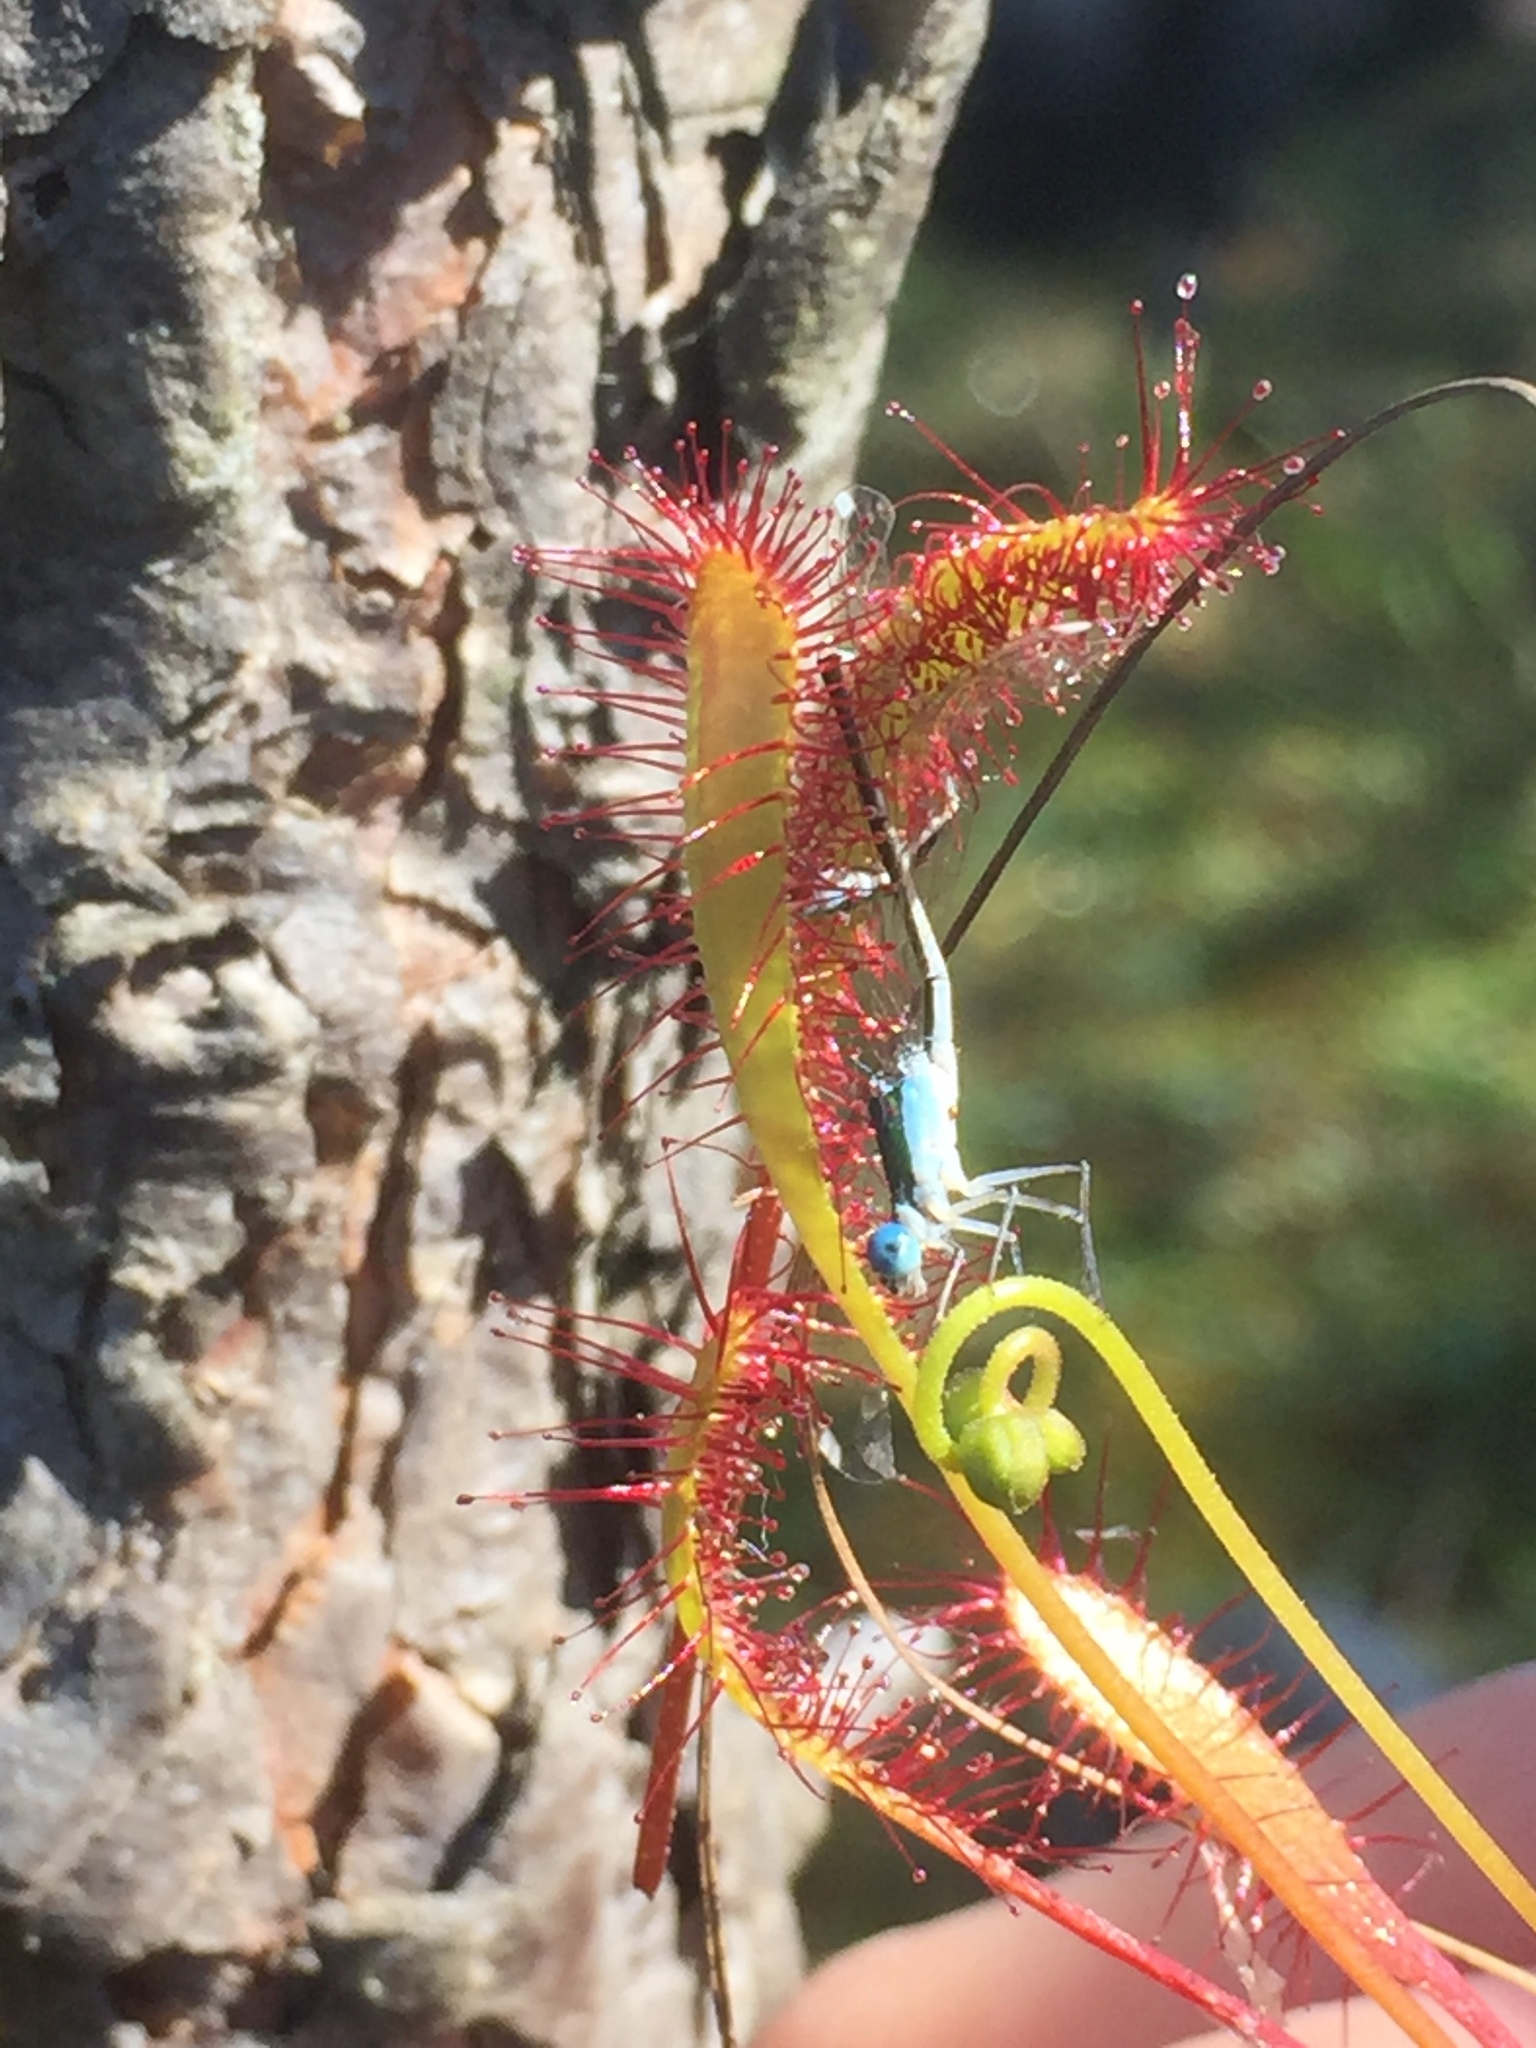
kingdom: Animalia
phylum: Arthropoda
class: Insecta
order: Odonata
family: Coenagrionidae
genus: Nehalennia
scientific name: Nehalennia speciosa
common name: Sedgling
